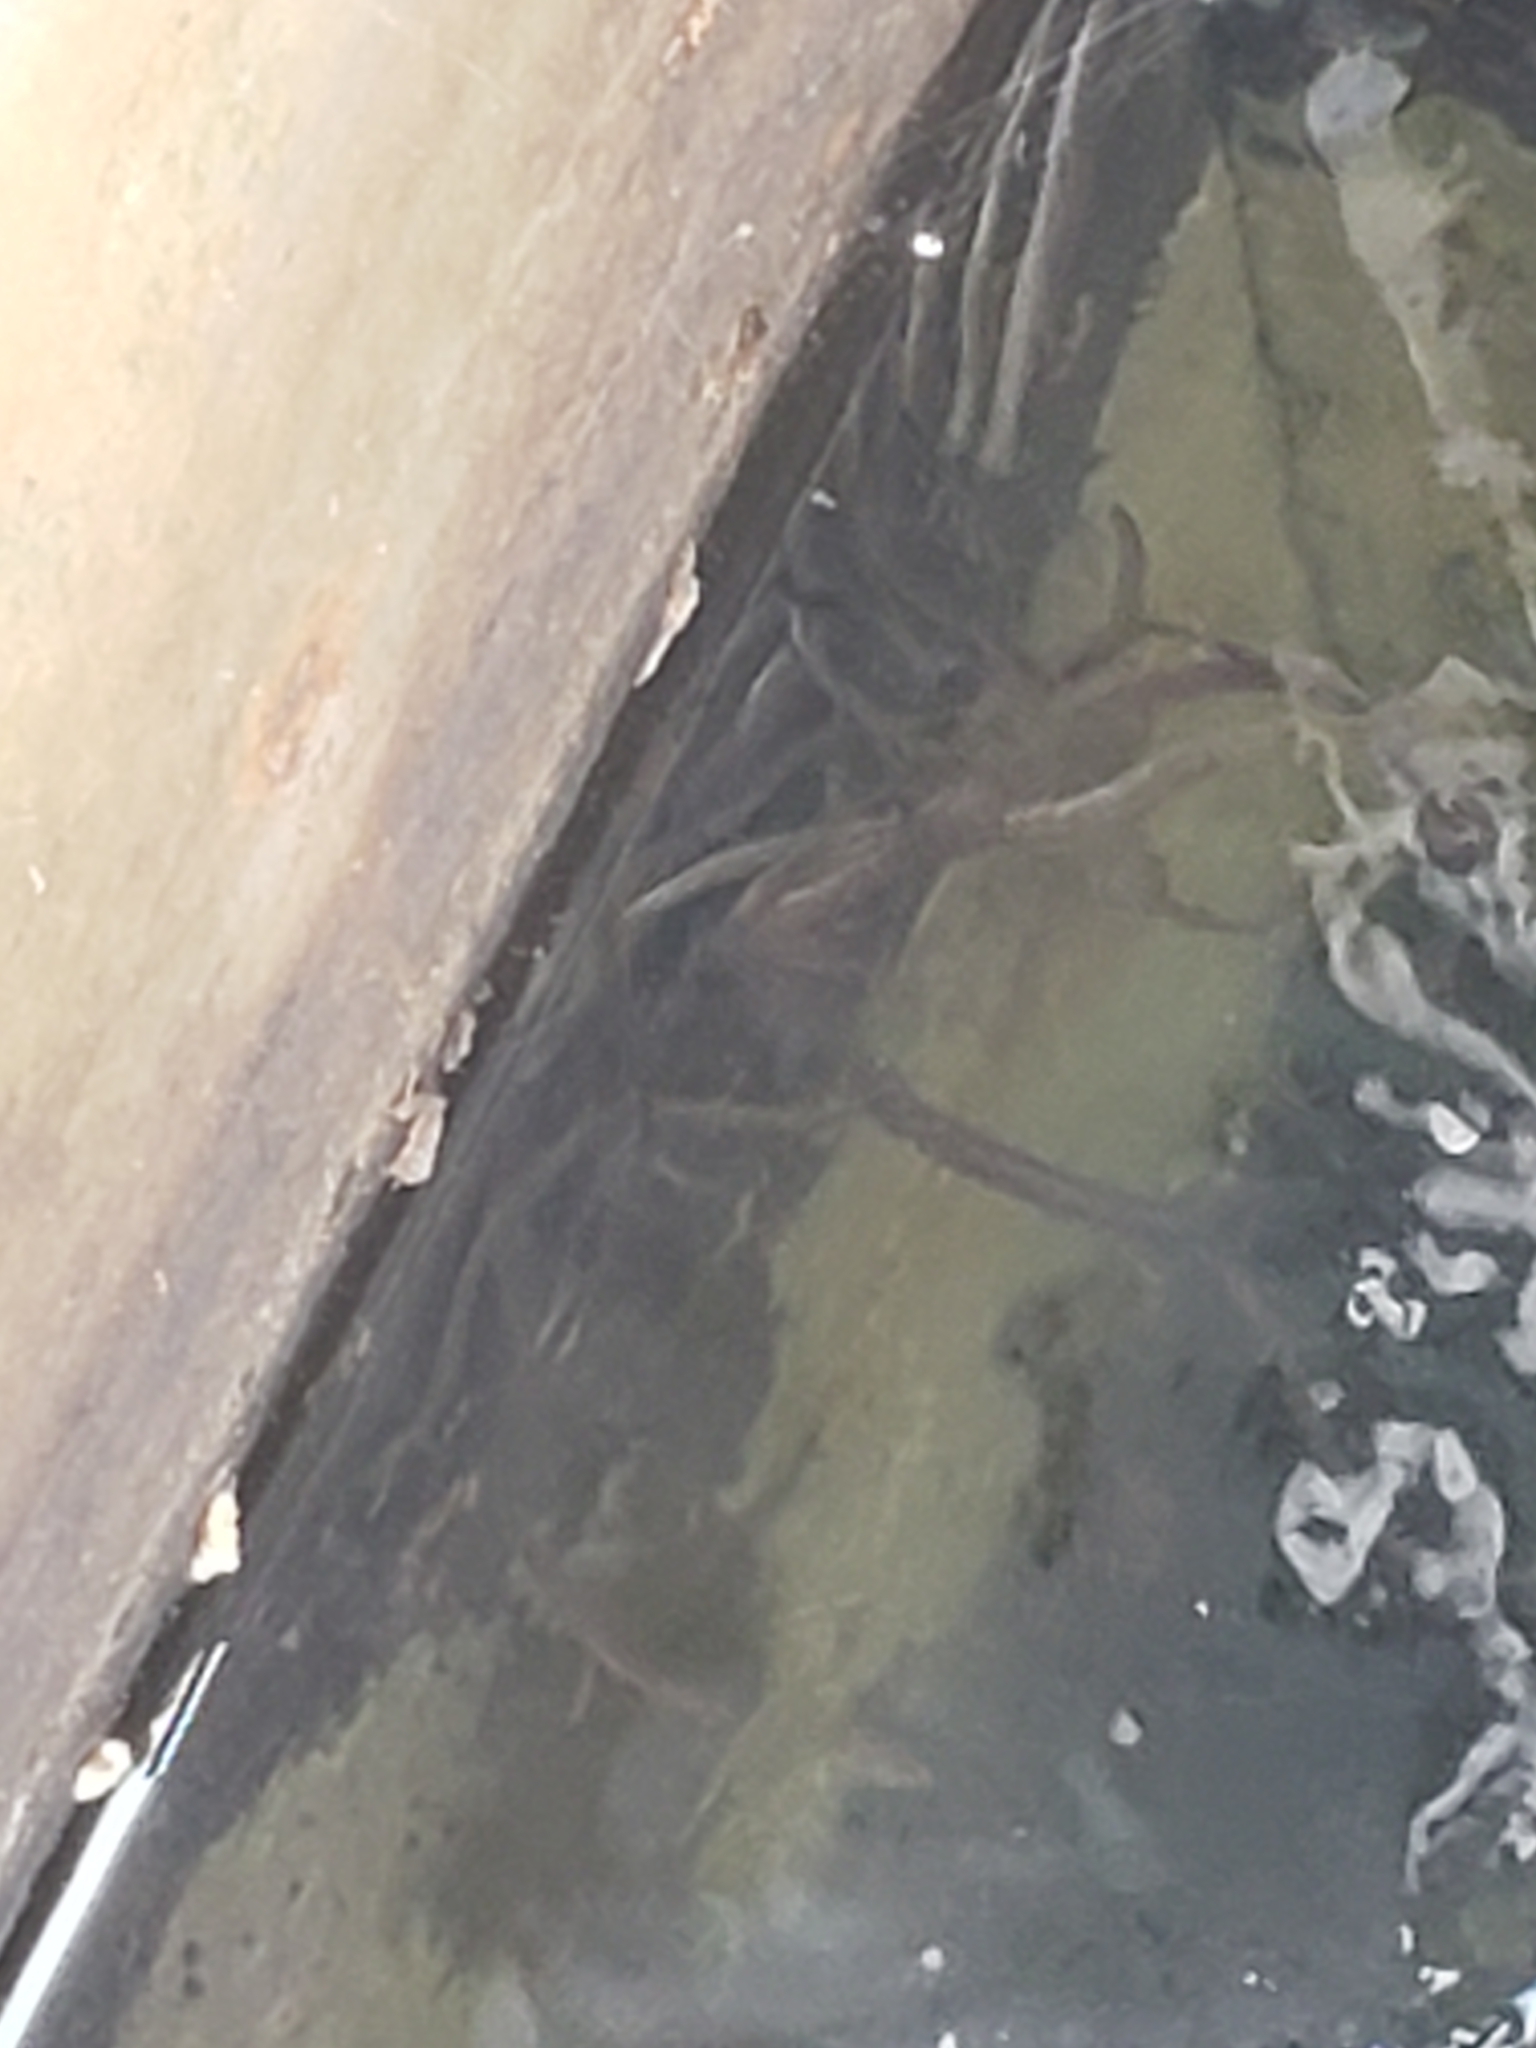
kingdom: Animalia
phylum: Chordata
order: Anguilliformes
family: Anguillidae
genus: Anguilla
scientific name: Anguilla rostrata
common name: American eel
